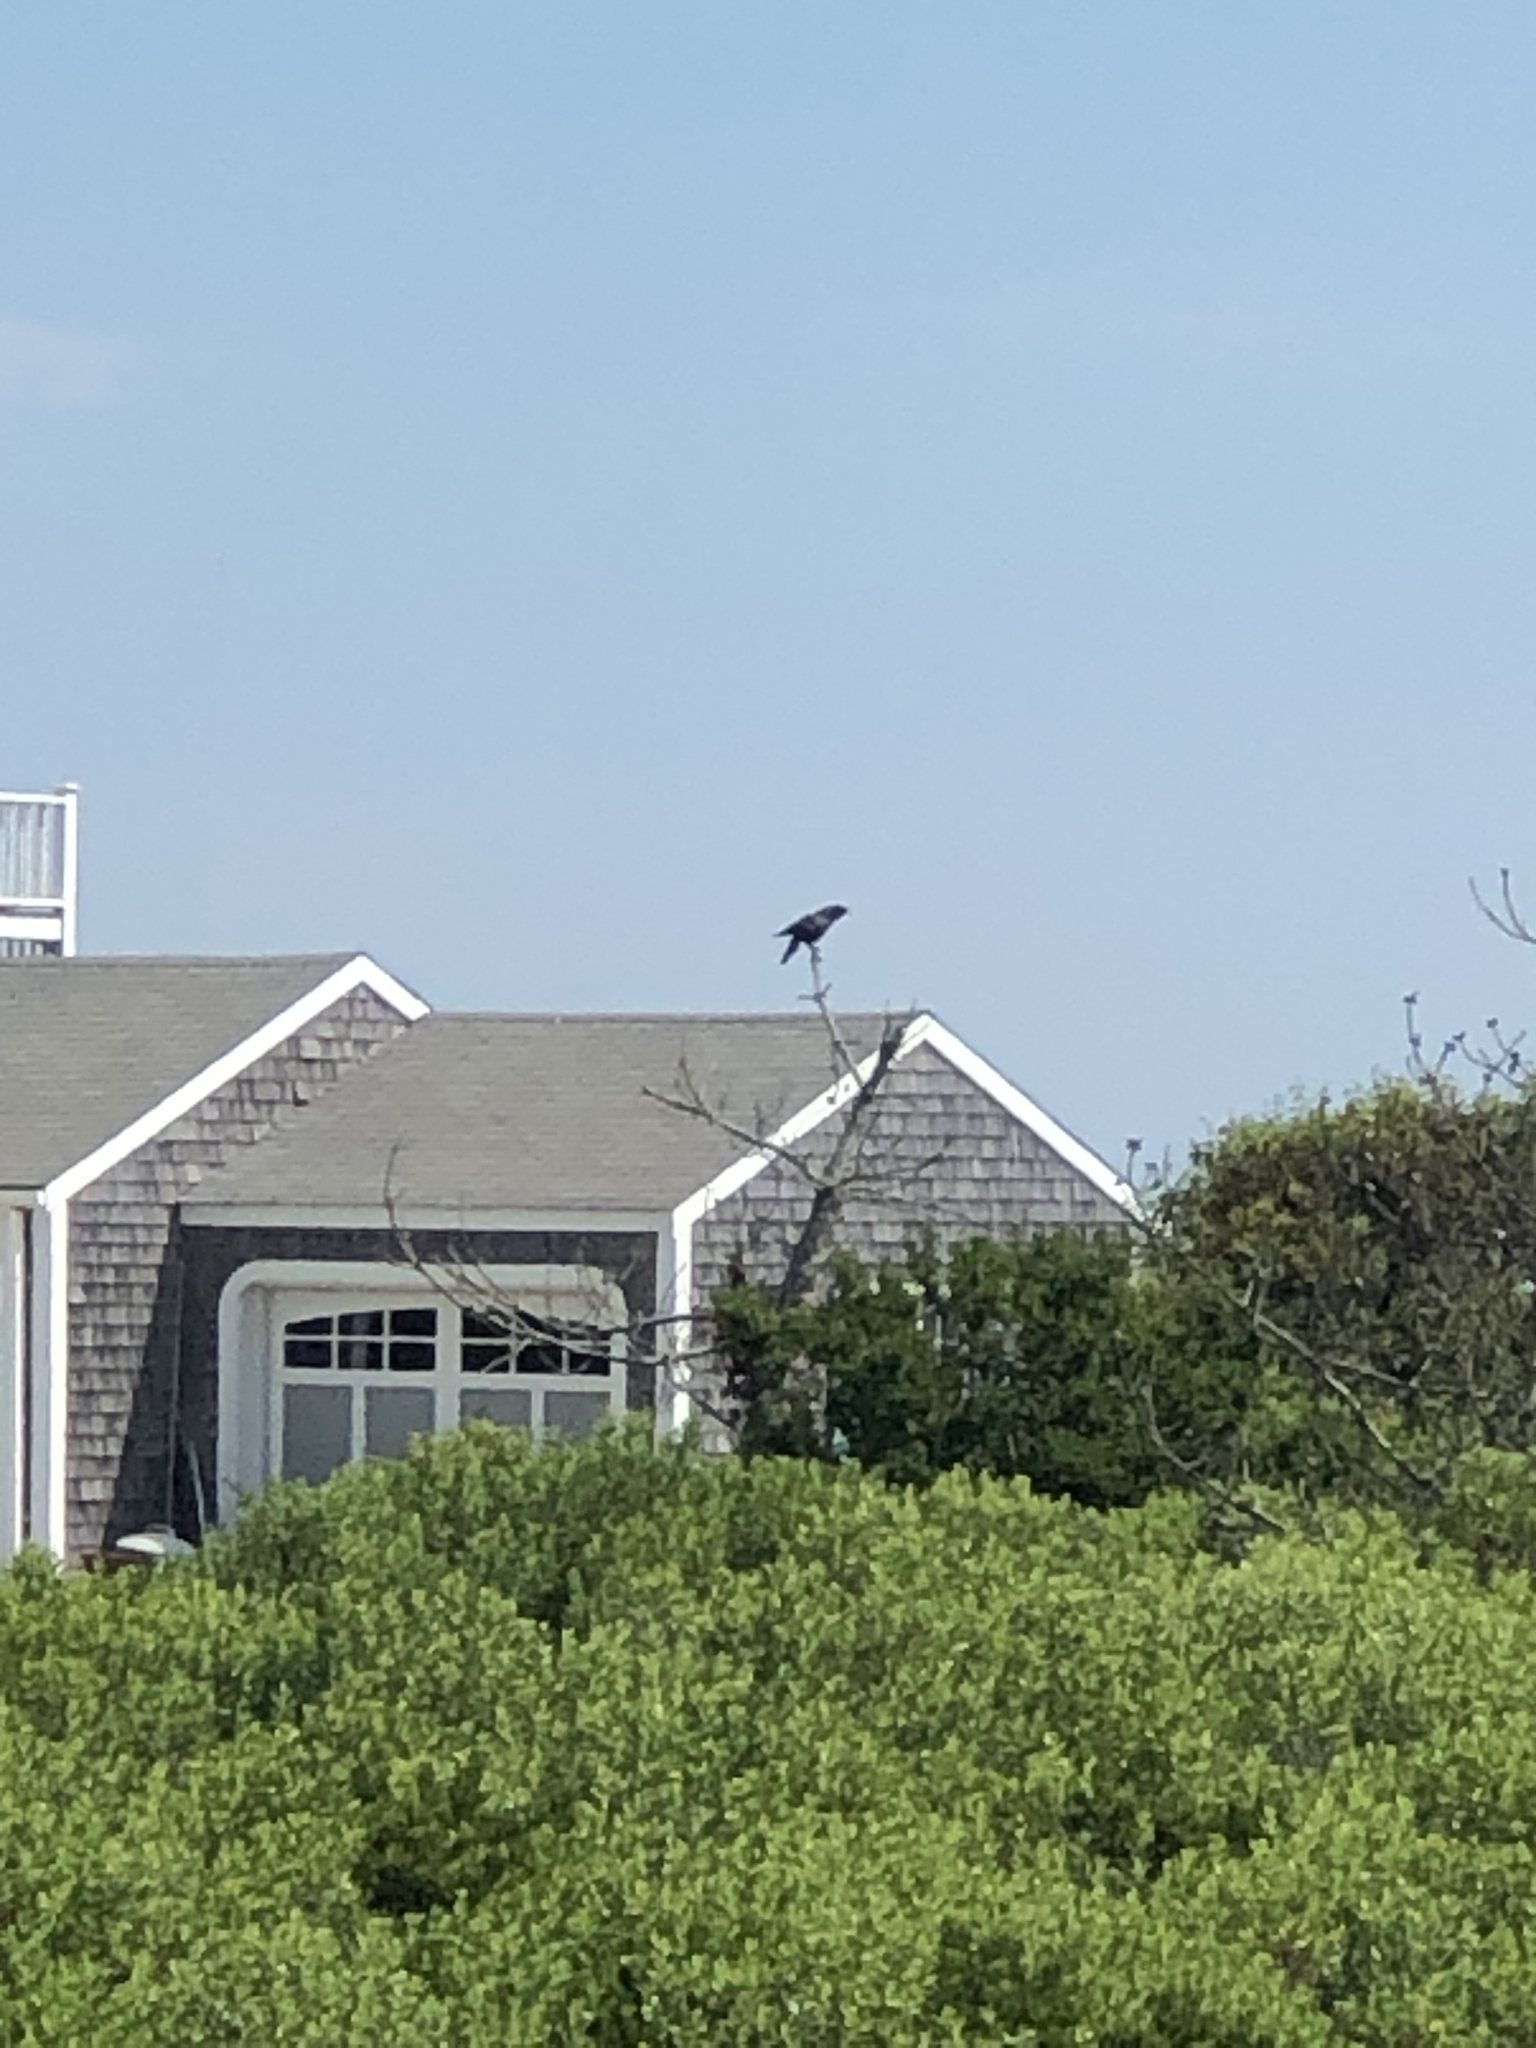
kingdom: Animalia
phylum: Chordata
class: Aves
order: Passeriformes
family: Corvidae
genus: Corvus
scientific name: Corvus brachyrhynchos
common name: American crow
